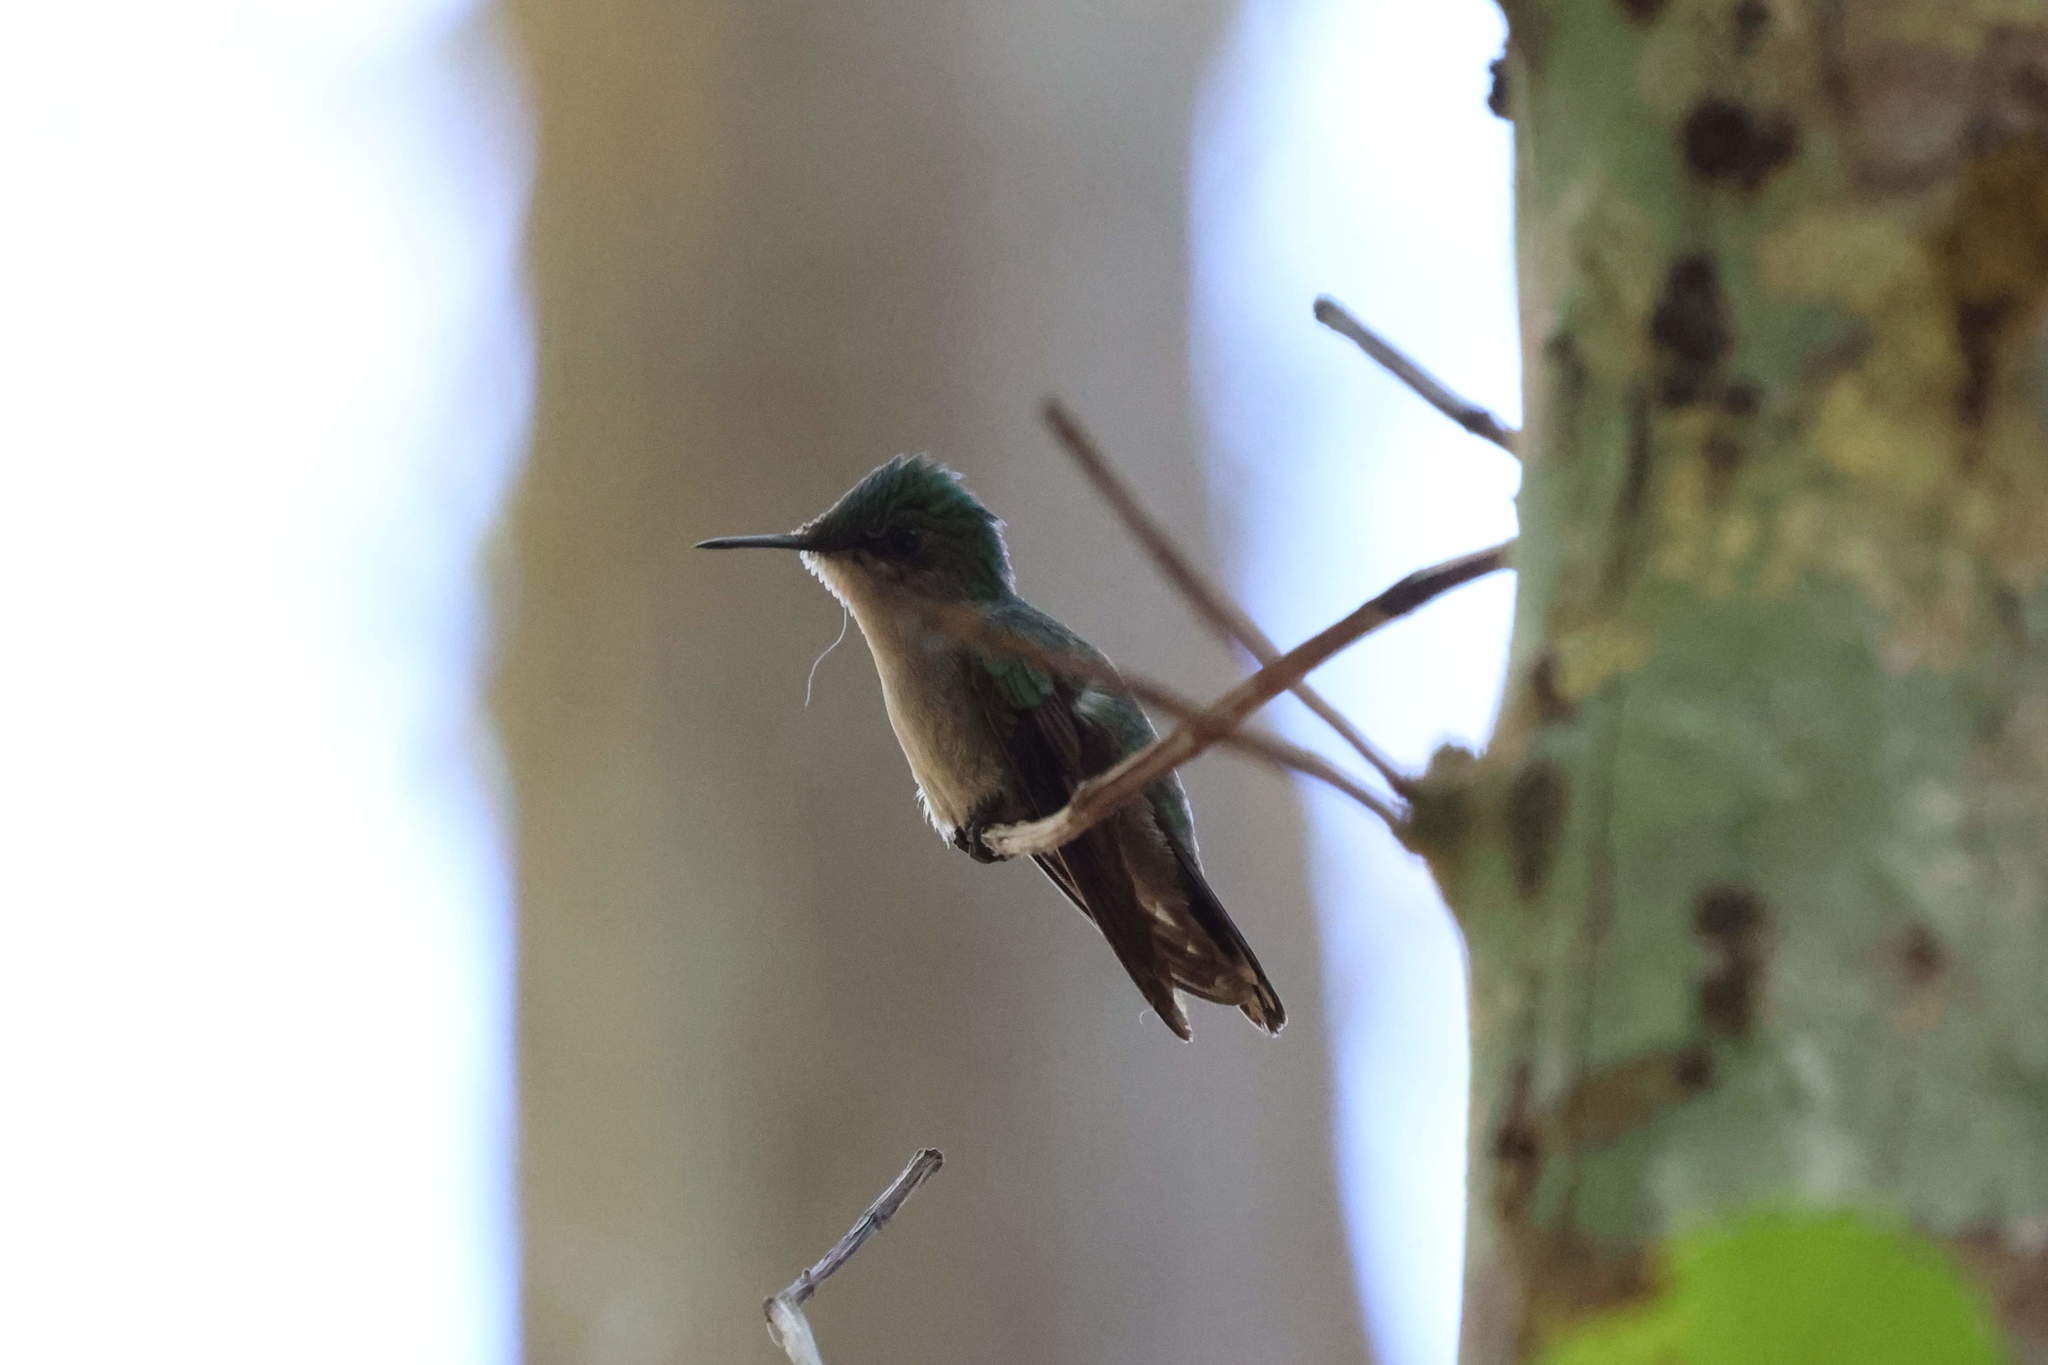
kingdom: Animalia
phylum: Chordata
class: Aves
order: Apodiformes
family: Trochilidae
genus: Orthorhyncus
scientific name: Orthorhyncus cristatus
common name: Antillean crested hummingbird
